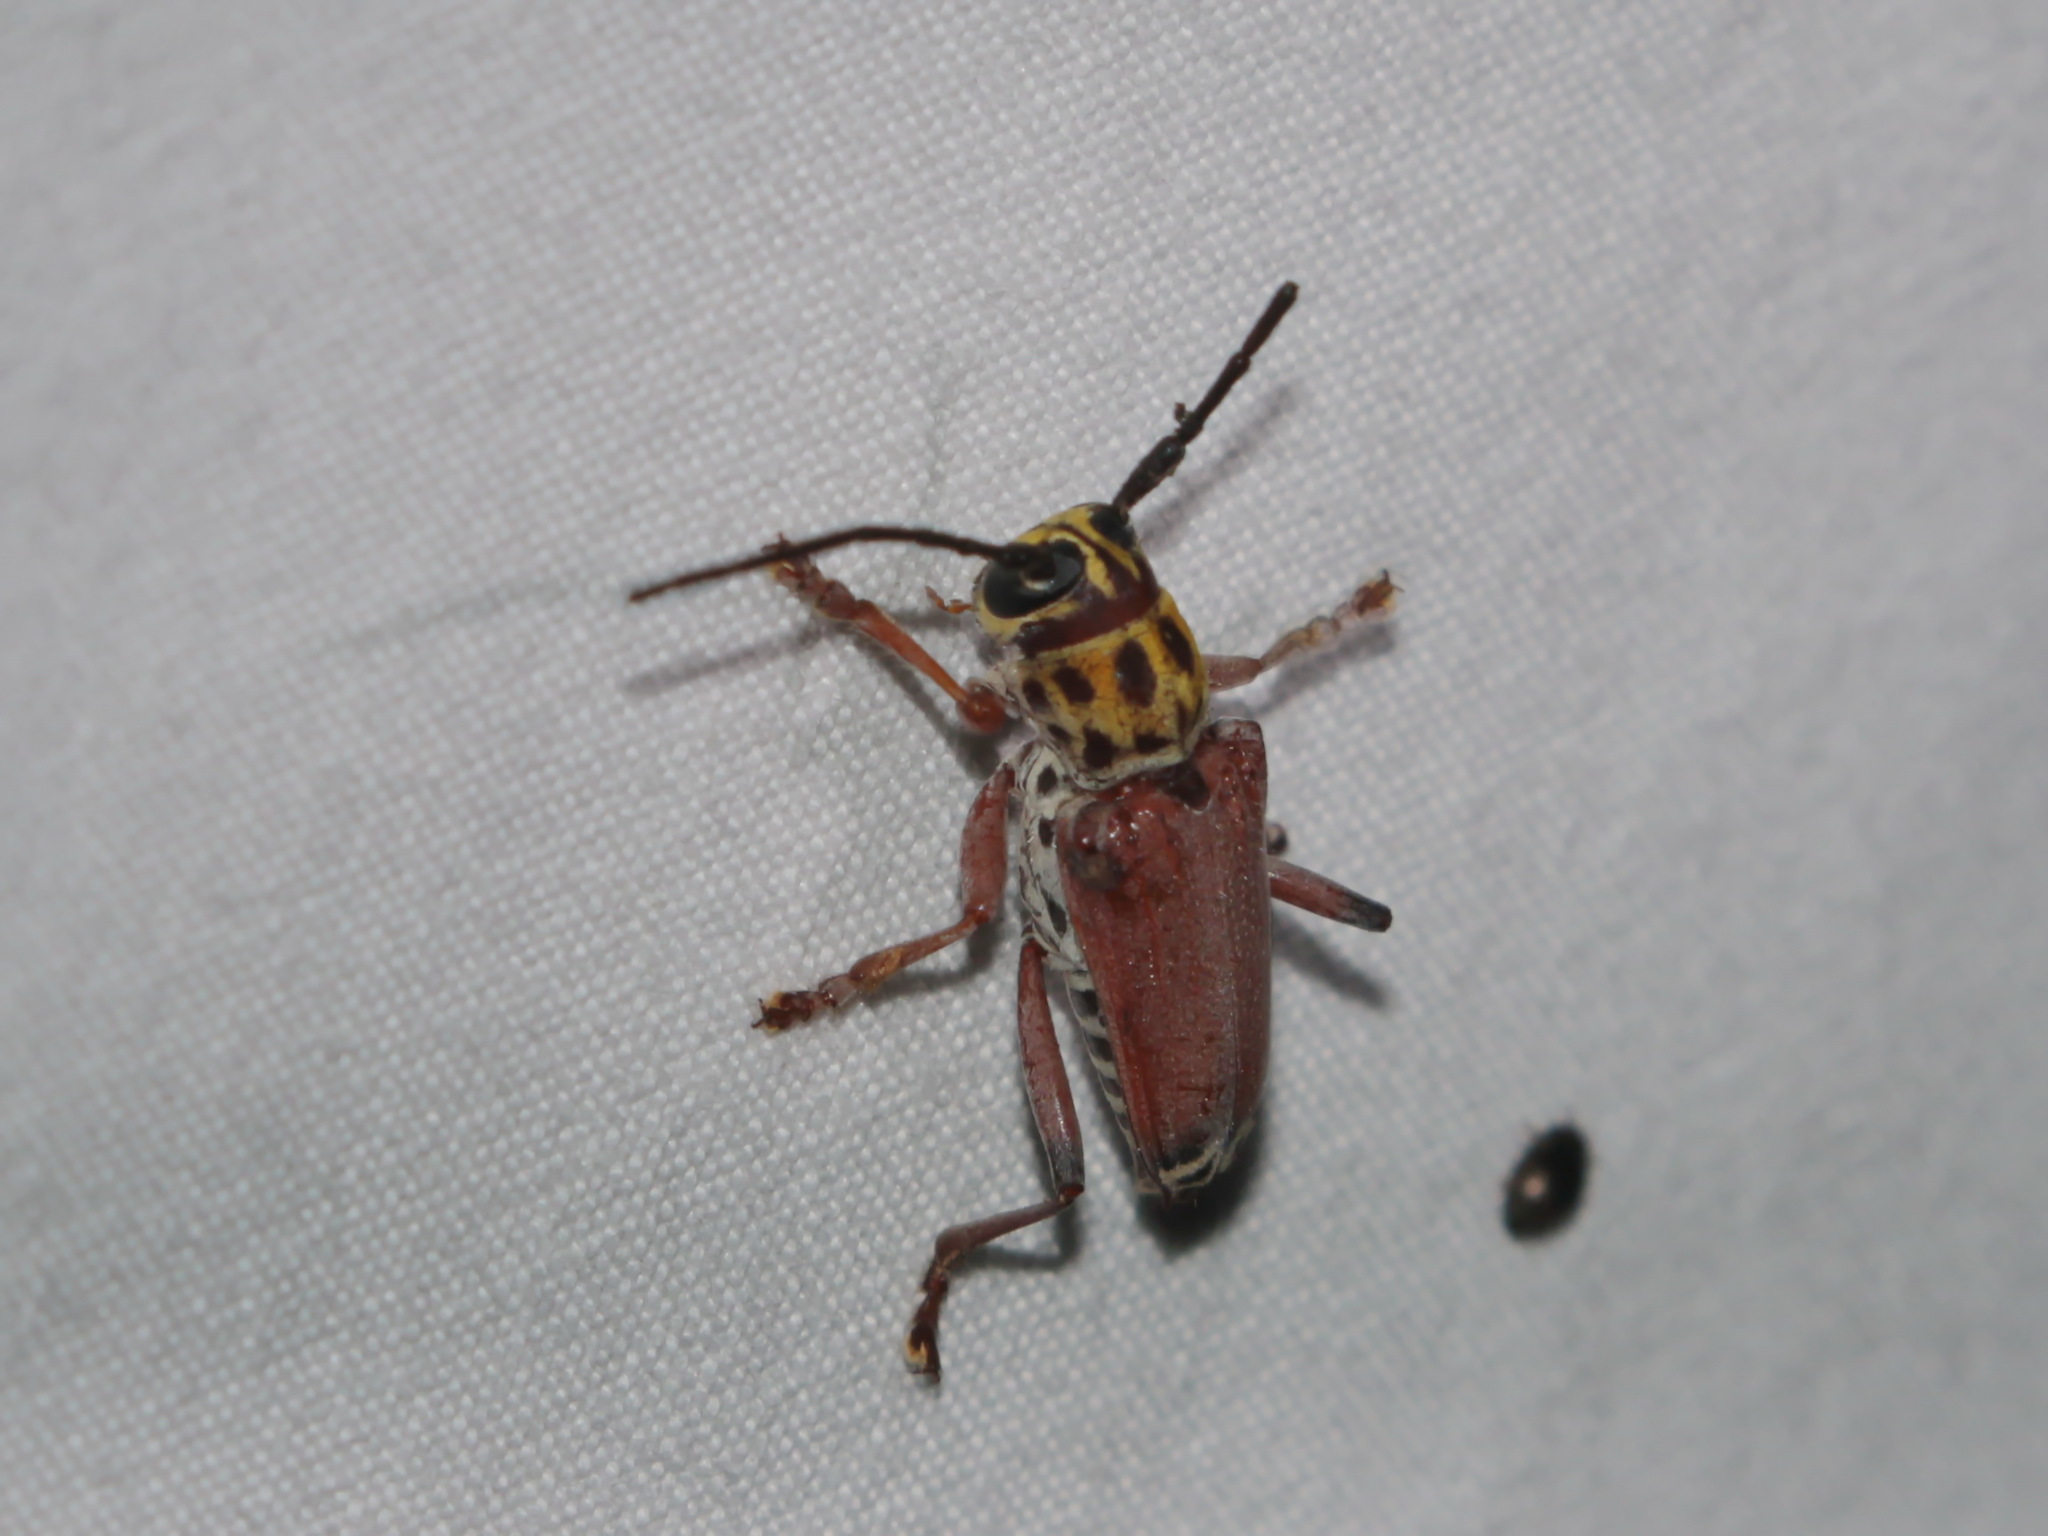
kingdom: Animalia
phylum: Arthropoda
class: Insecta
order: Coleoptera
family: Cerambycidae
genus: Glenea
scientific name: Glenea cantor
